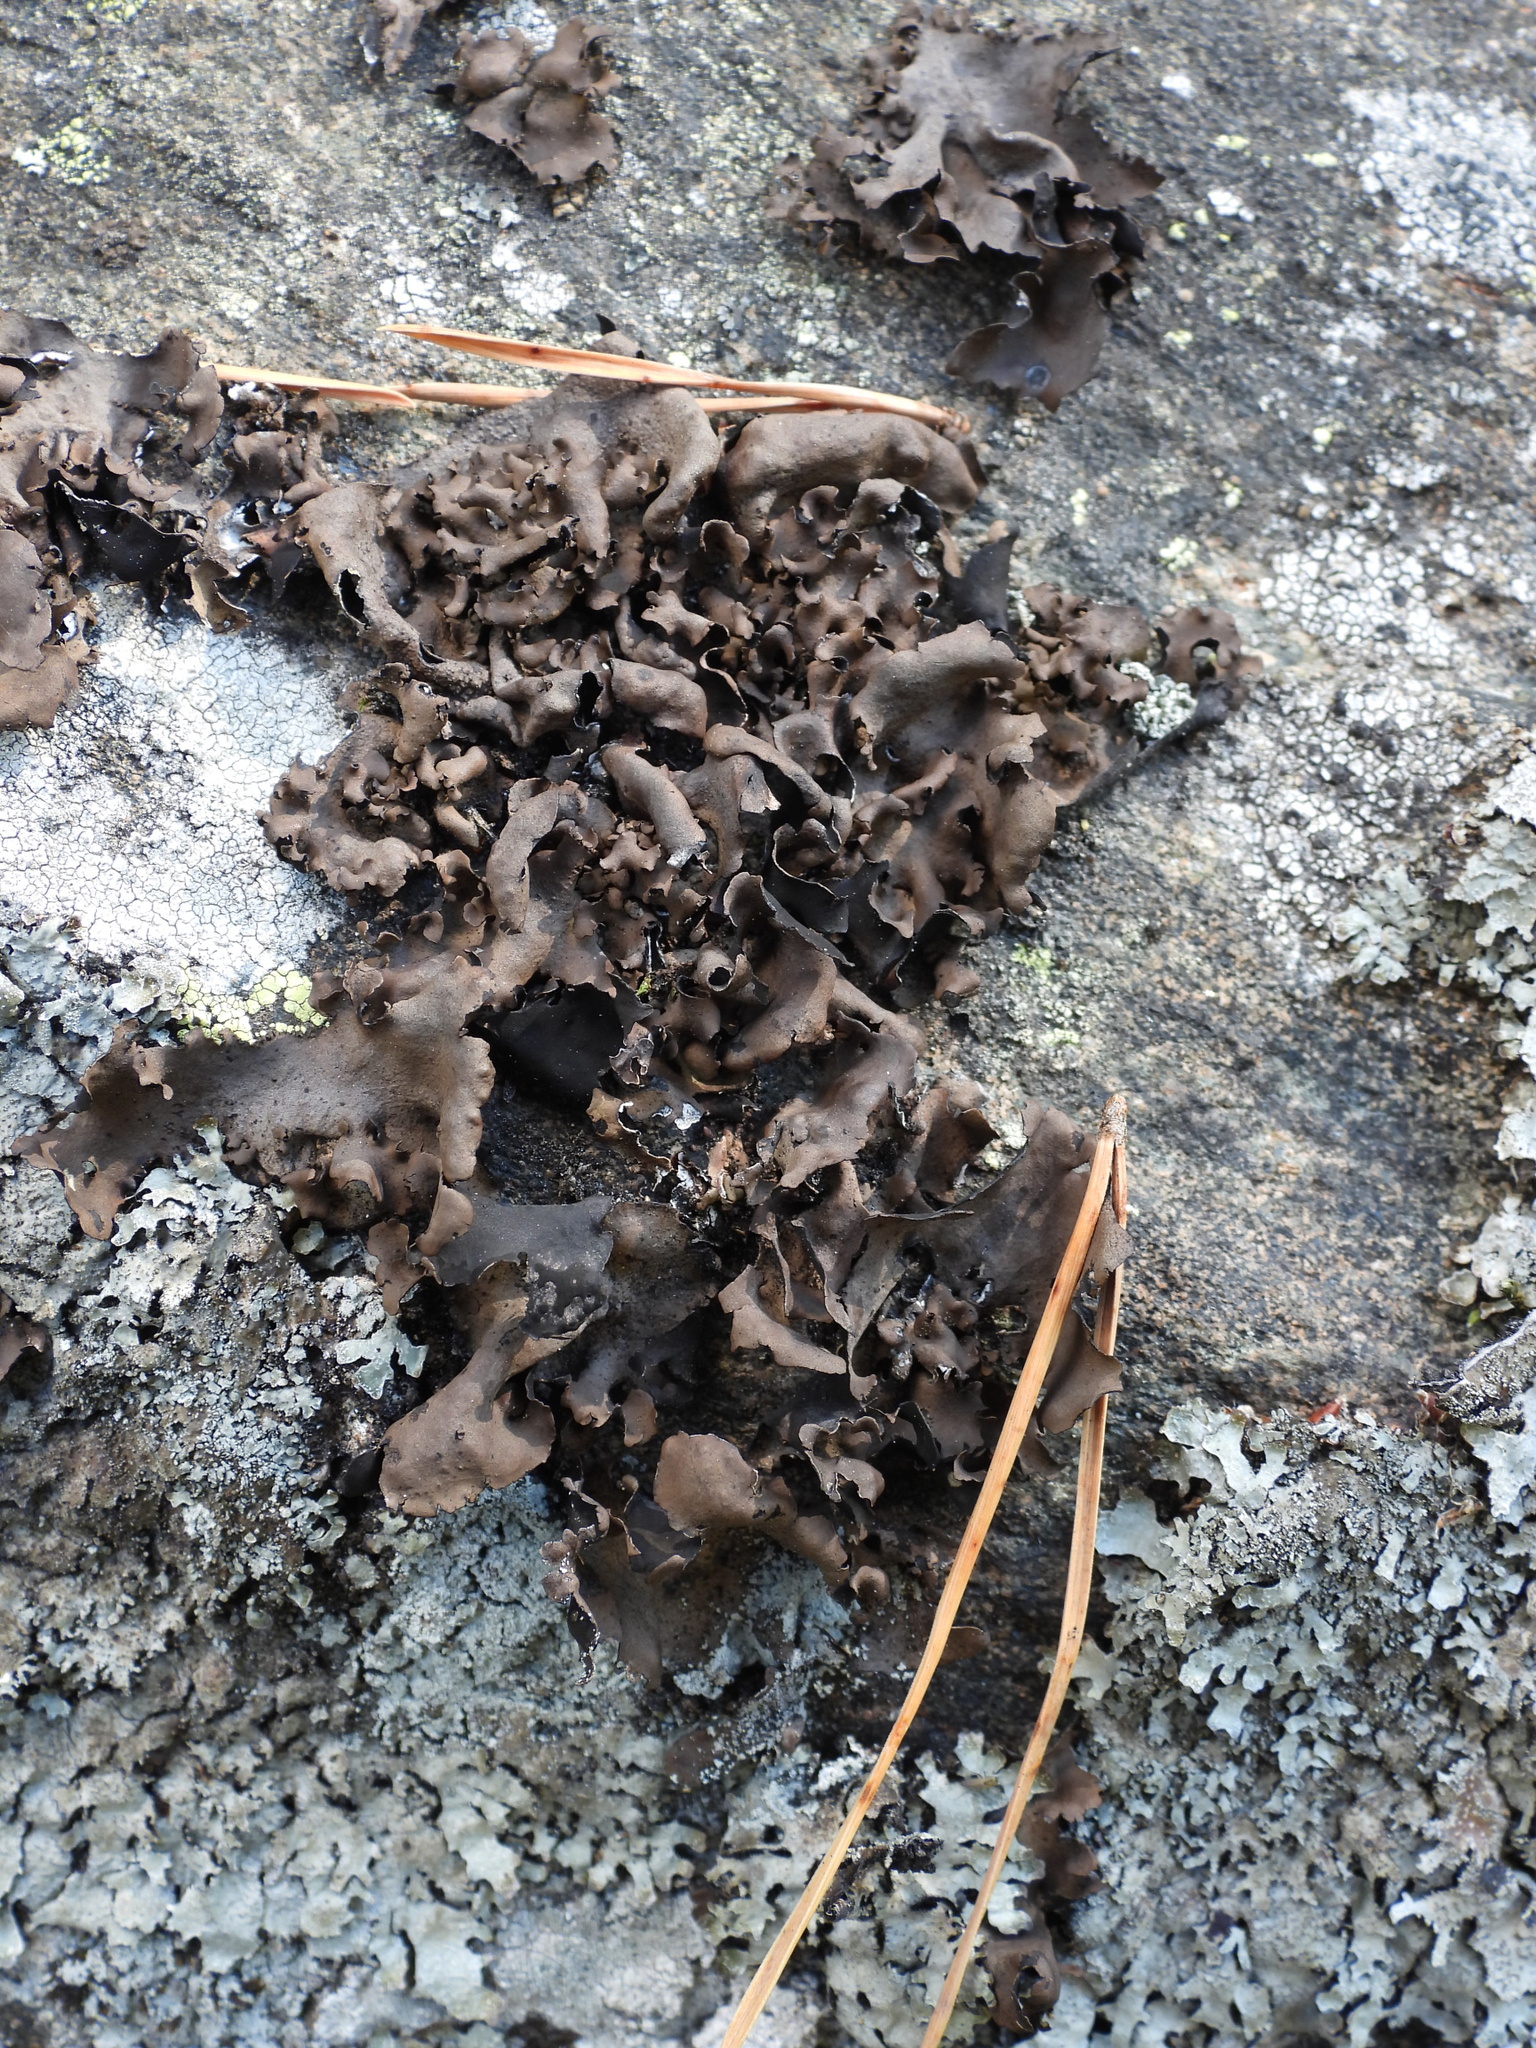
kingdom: Fungi
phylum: Ascomycota
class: Lecanoromycetes
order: Umbilicariales
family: Umbilicariaceae
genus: Umbilicaria
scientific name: Umbilicaria polyphylla
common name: Petalled rocktripe lichen
